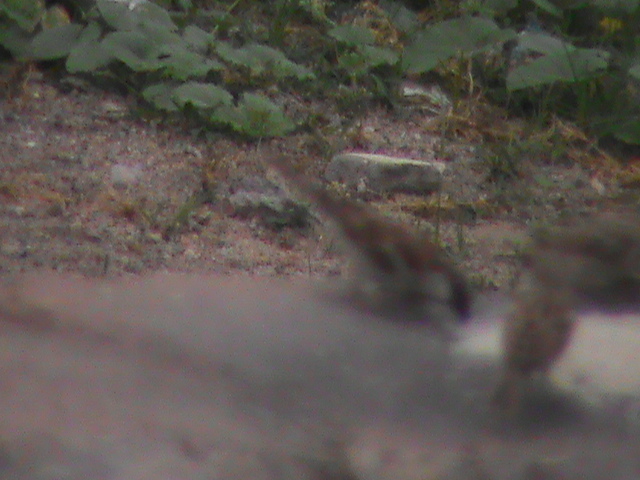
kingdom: Animalia
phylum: Chordata
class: Aves
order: Passeriformes
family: Passeridae
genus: Passer
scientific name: Passer domesticus
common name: House sparrow
